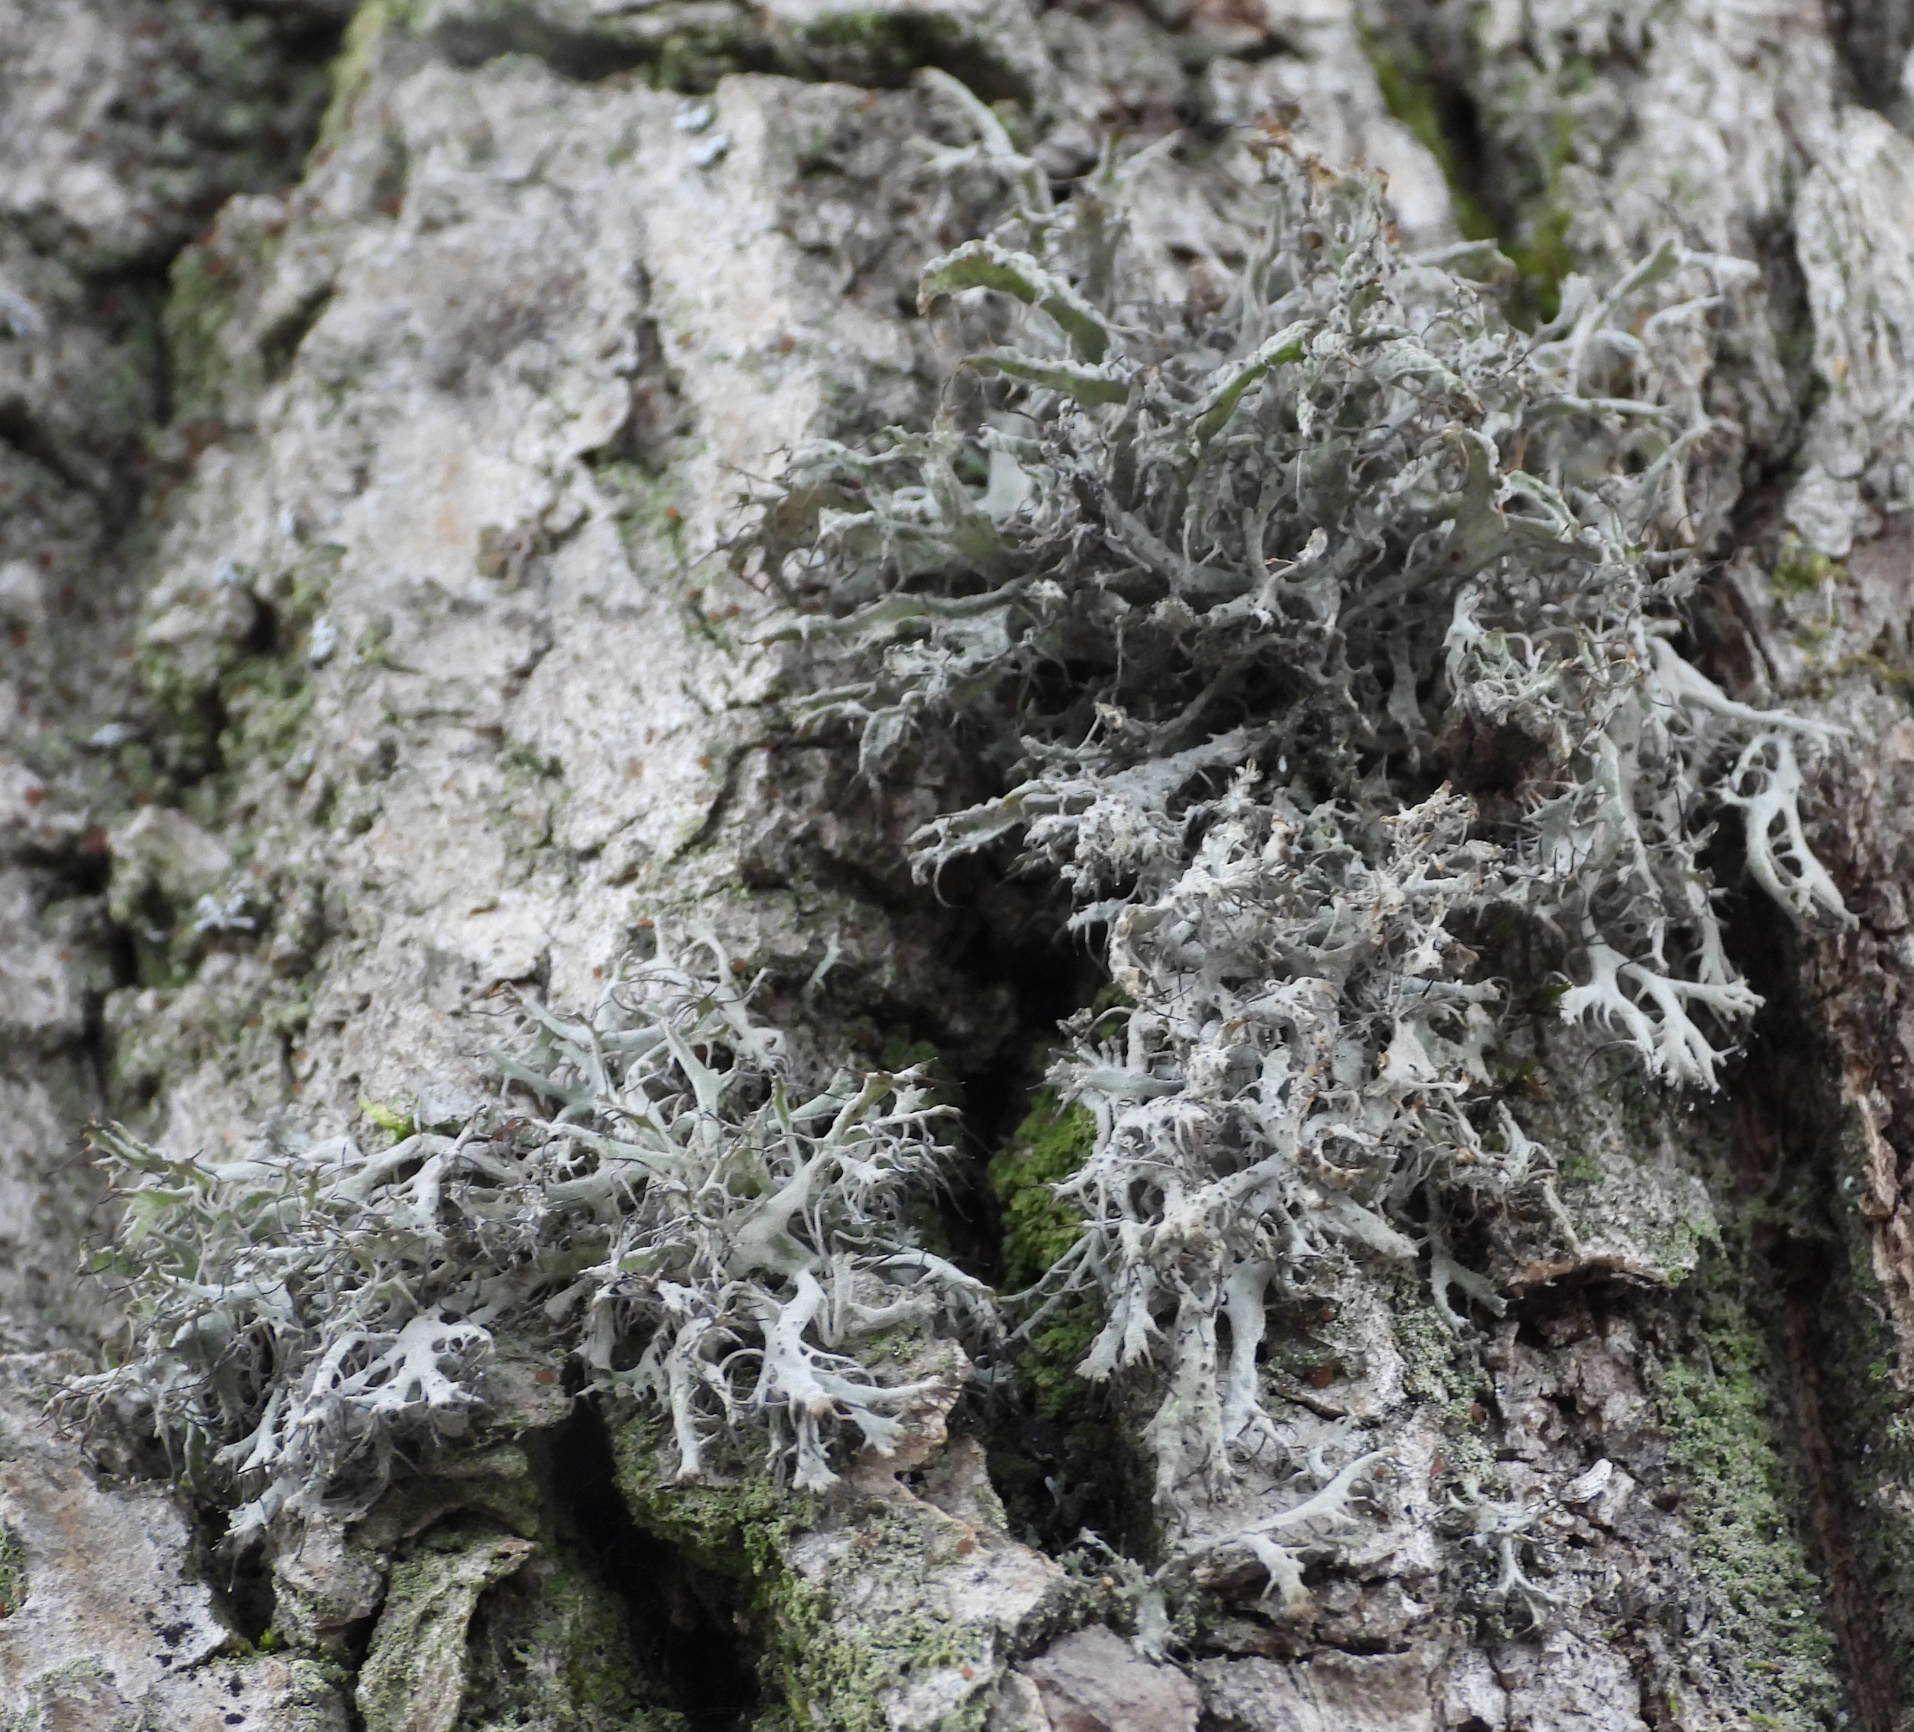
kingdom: Fungi
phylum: Ascomycota
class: Lecanoromycetes
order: Caliciales
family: Physciaceae
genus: Anaptychia
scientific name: Anaptychia ciliaris
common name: Great ciliated lichen
